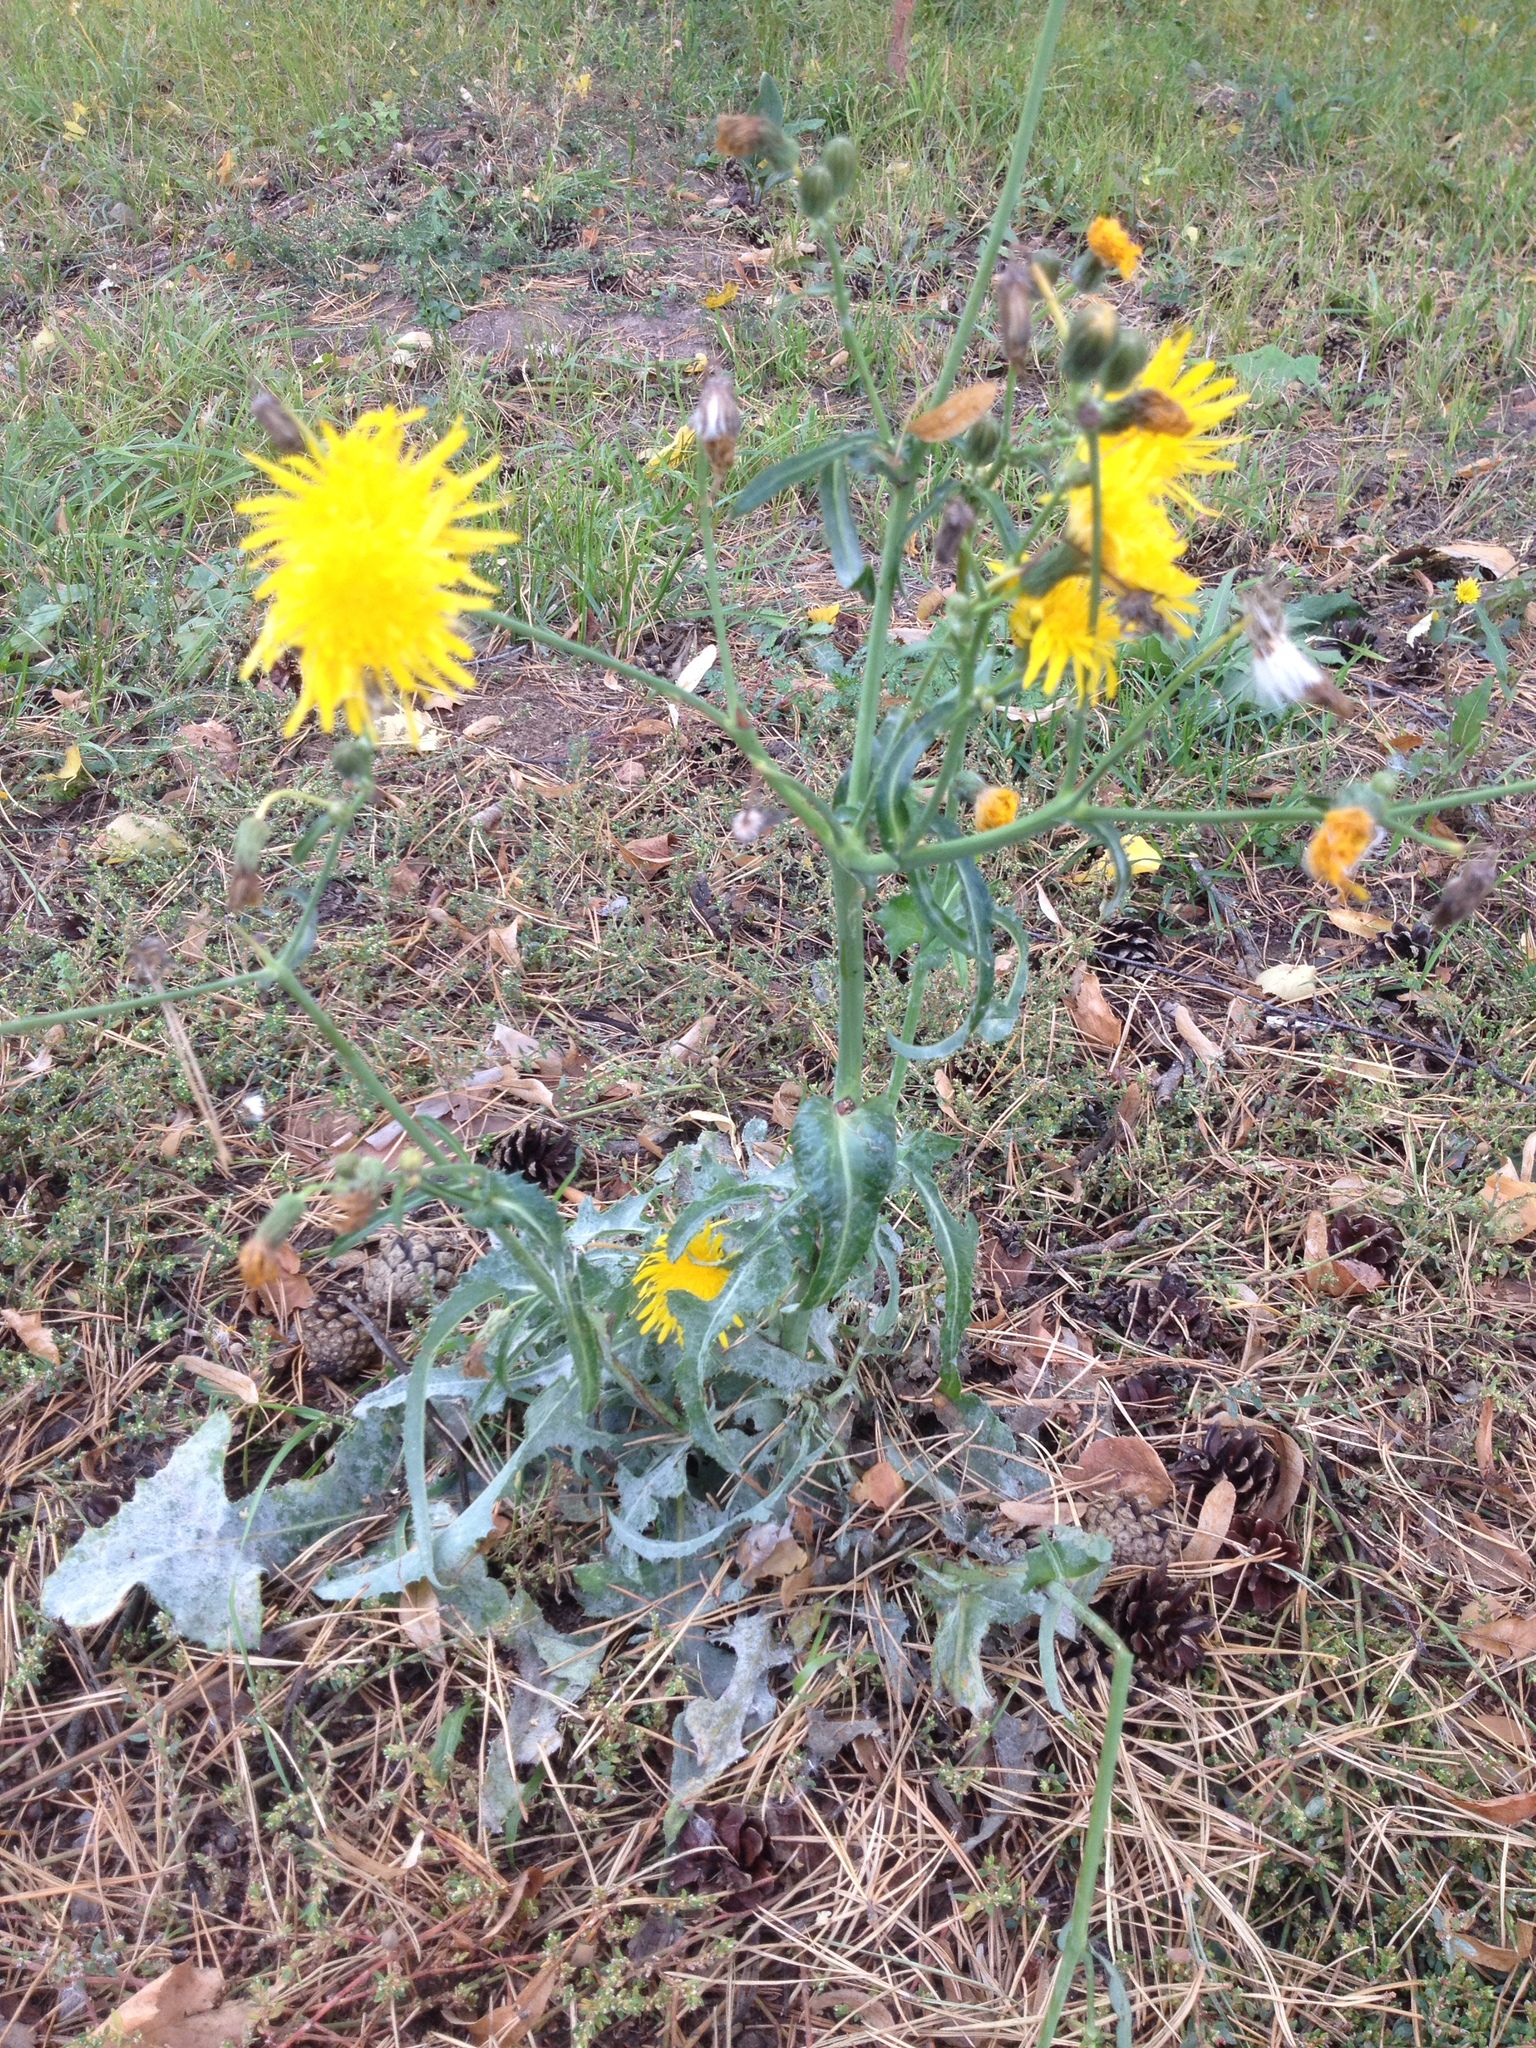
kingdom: Plantae
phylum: Tracheophyta
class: Magnoliopsida
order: Asterales
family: Asteraceae
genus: Sonchus
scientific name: Sonchus arvensis
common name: Perennial sow-thistle
